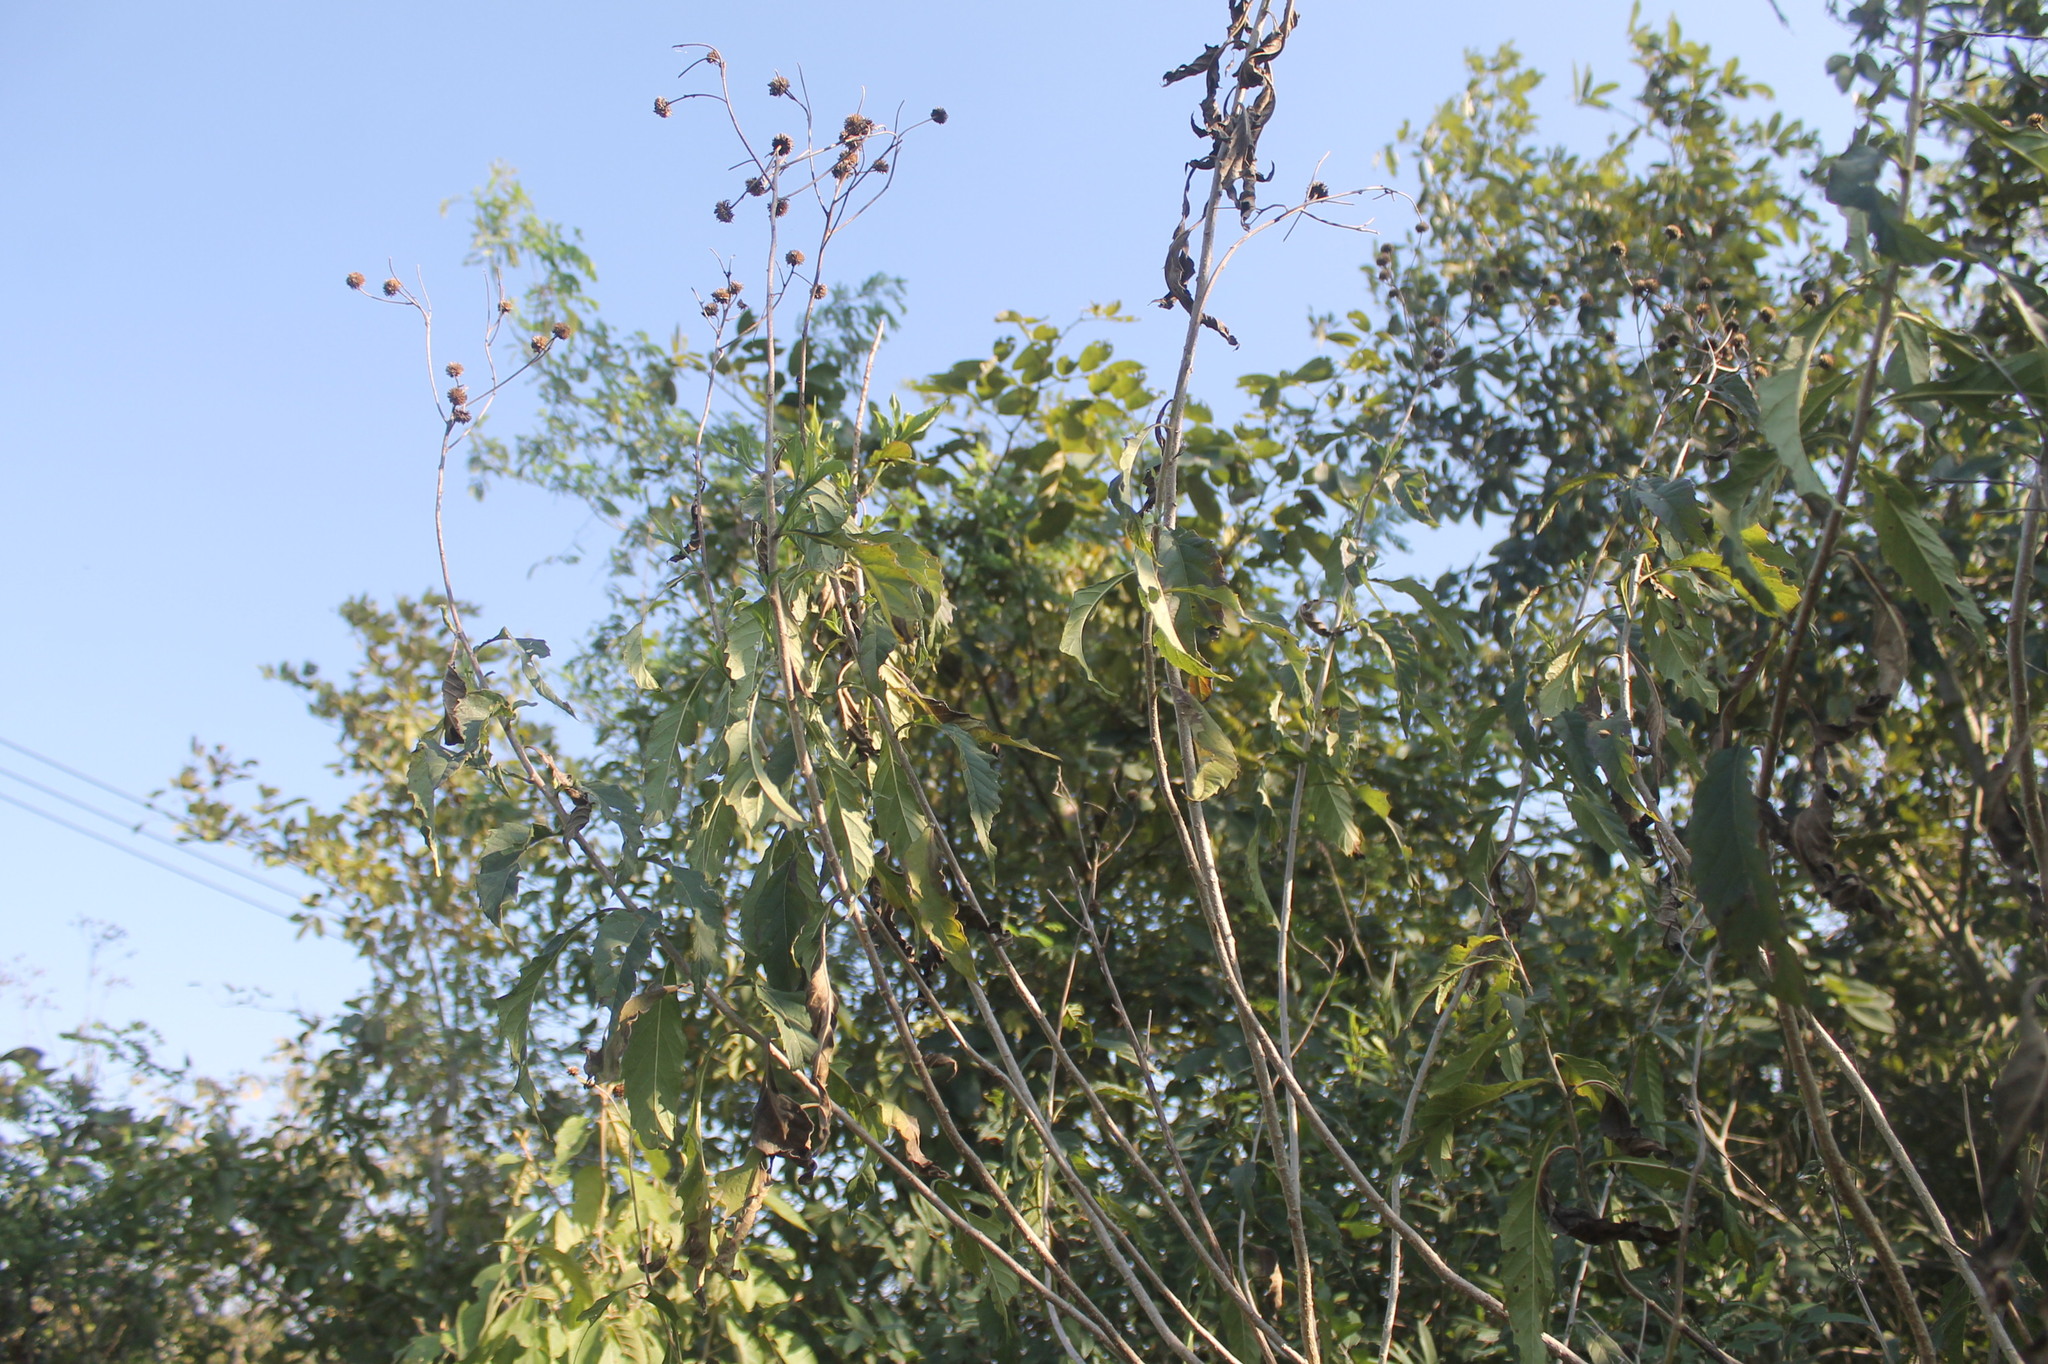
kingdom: Plantae
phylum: Tracheophyta
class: Magnoliopsida
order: Asterales
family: Asteraceae
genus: Verbesina
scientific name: Verbesina robinsonii
